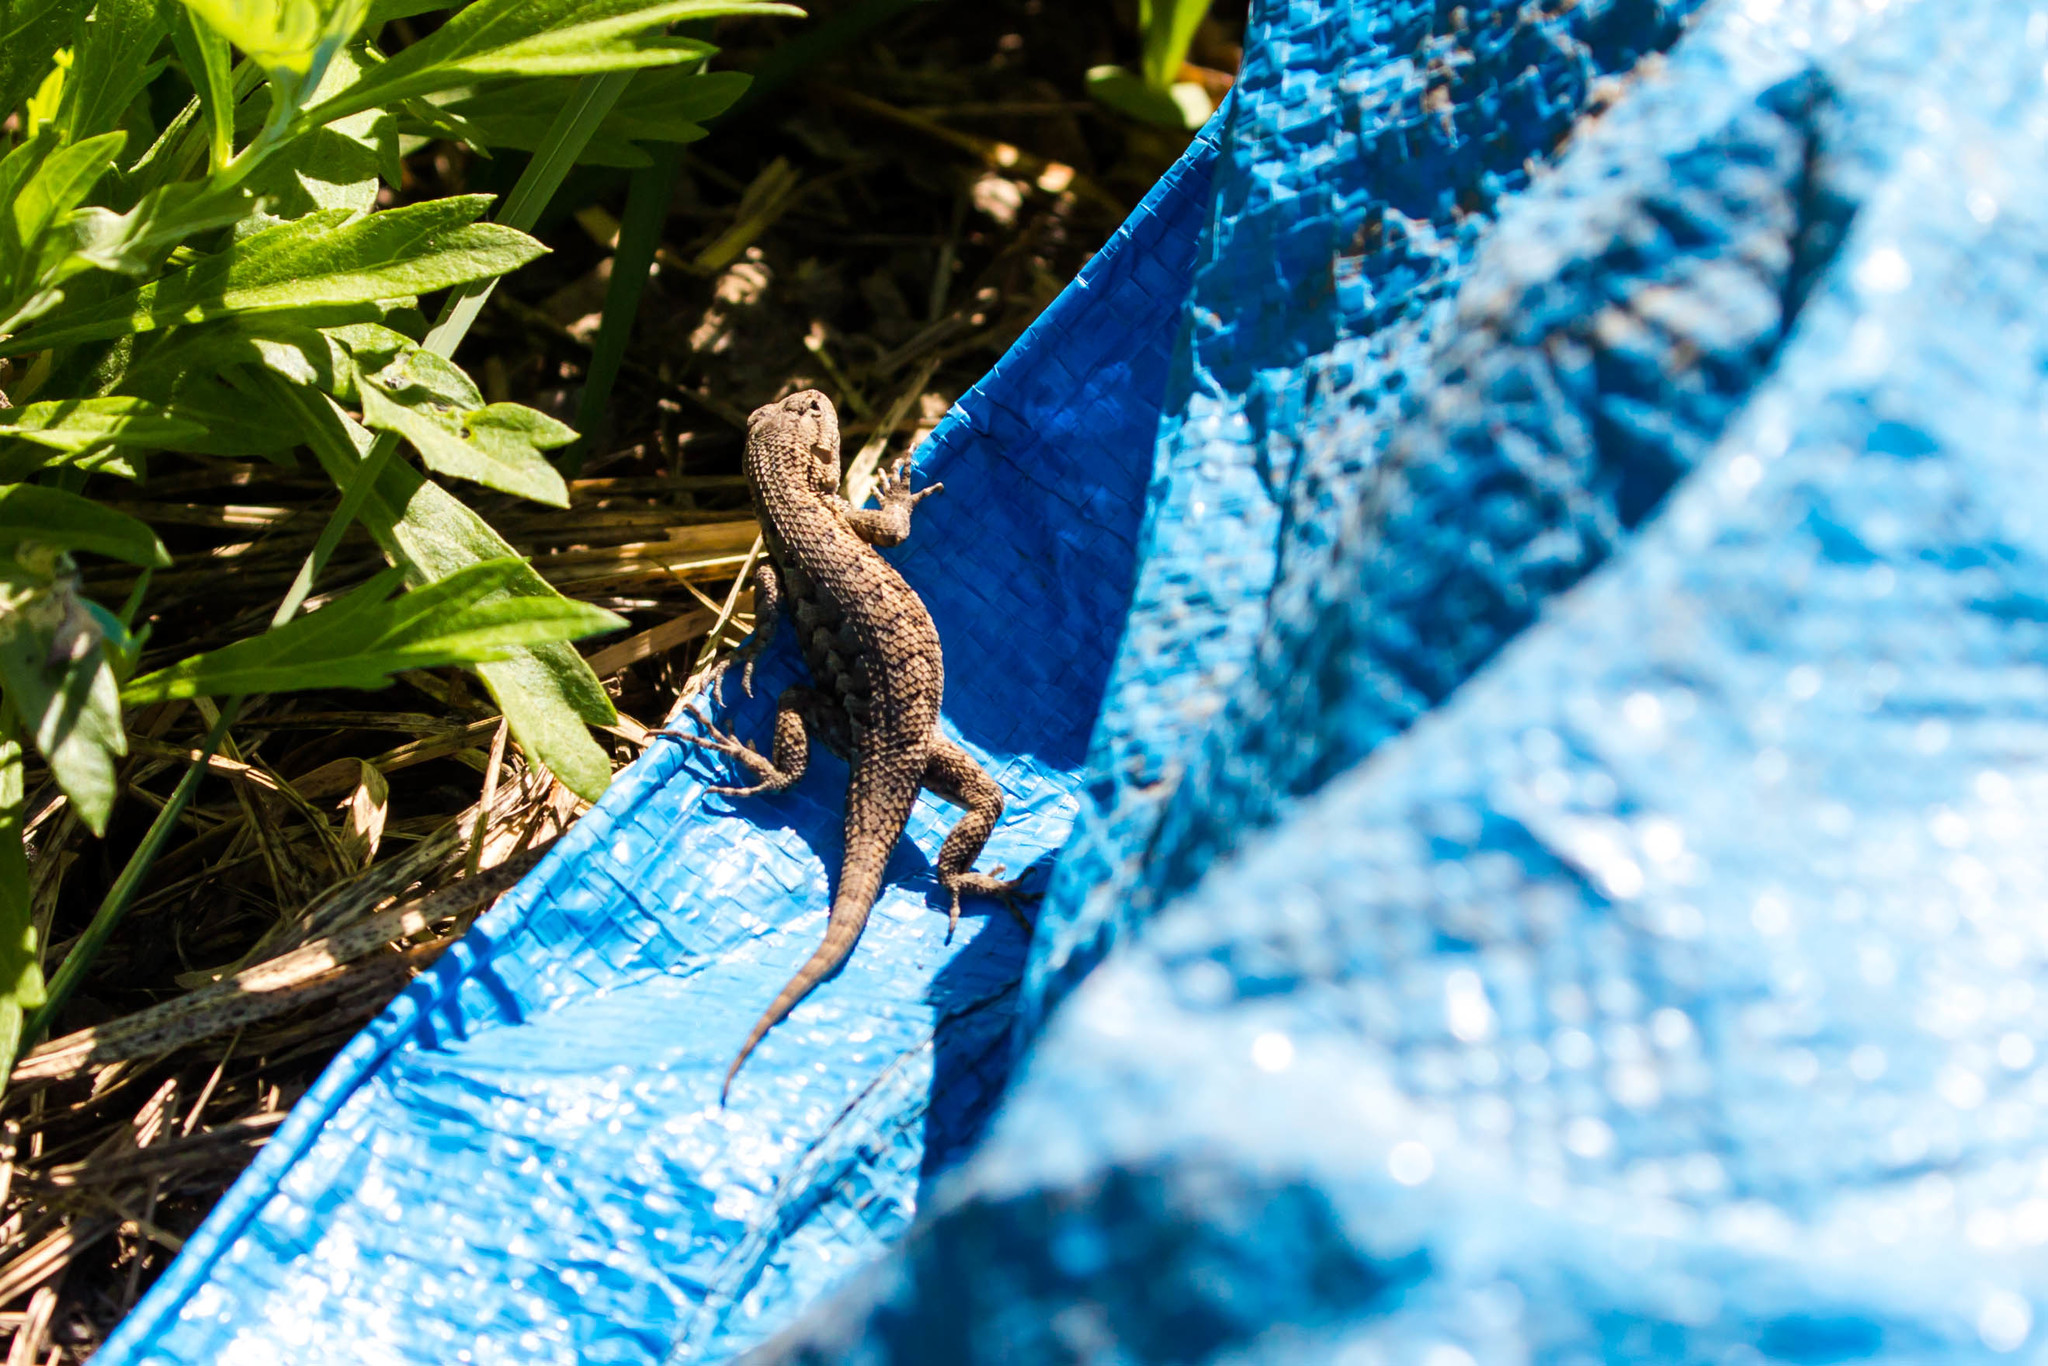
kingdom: Animalia
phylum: Chordata
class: Squamata
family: Phrynosomatidae
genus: Sceloporus
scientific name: Sceloporus occidentalis
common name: Western fence lizard
